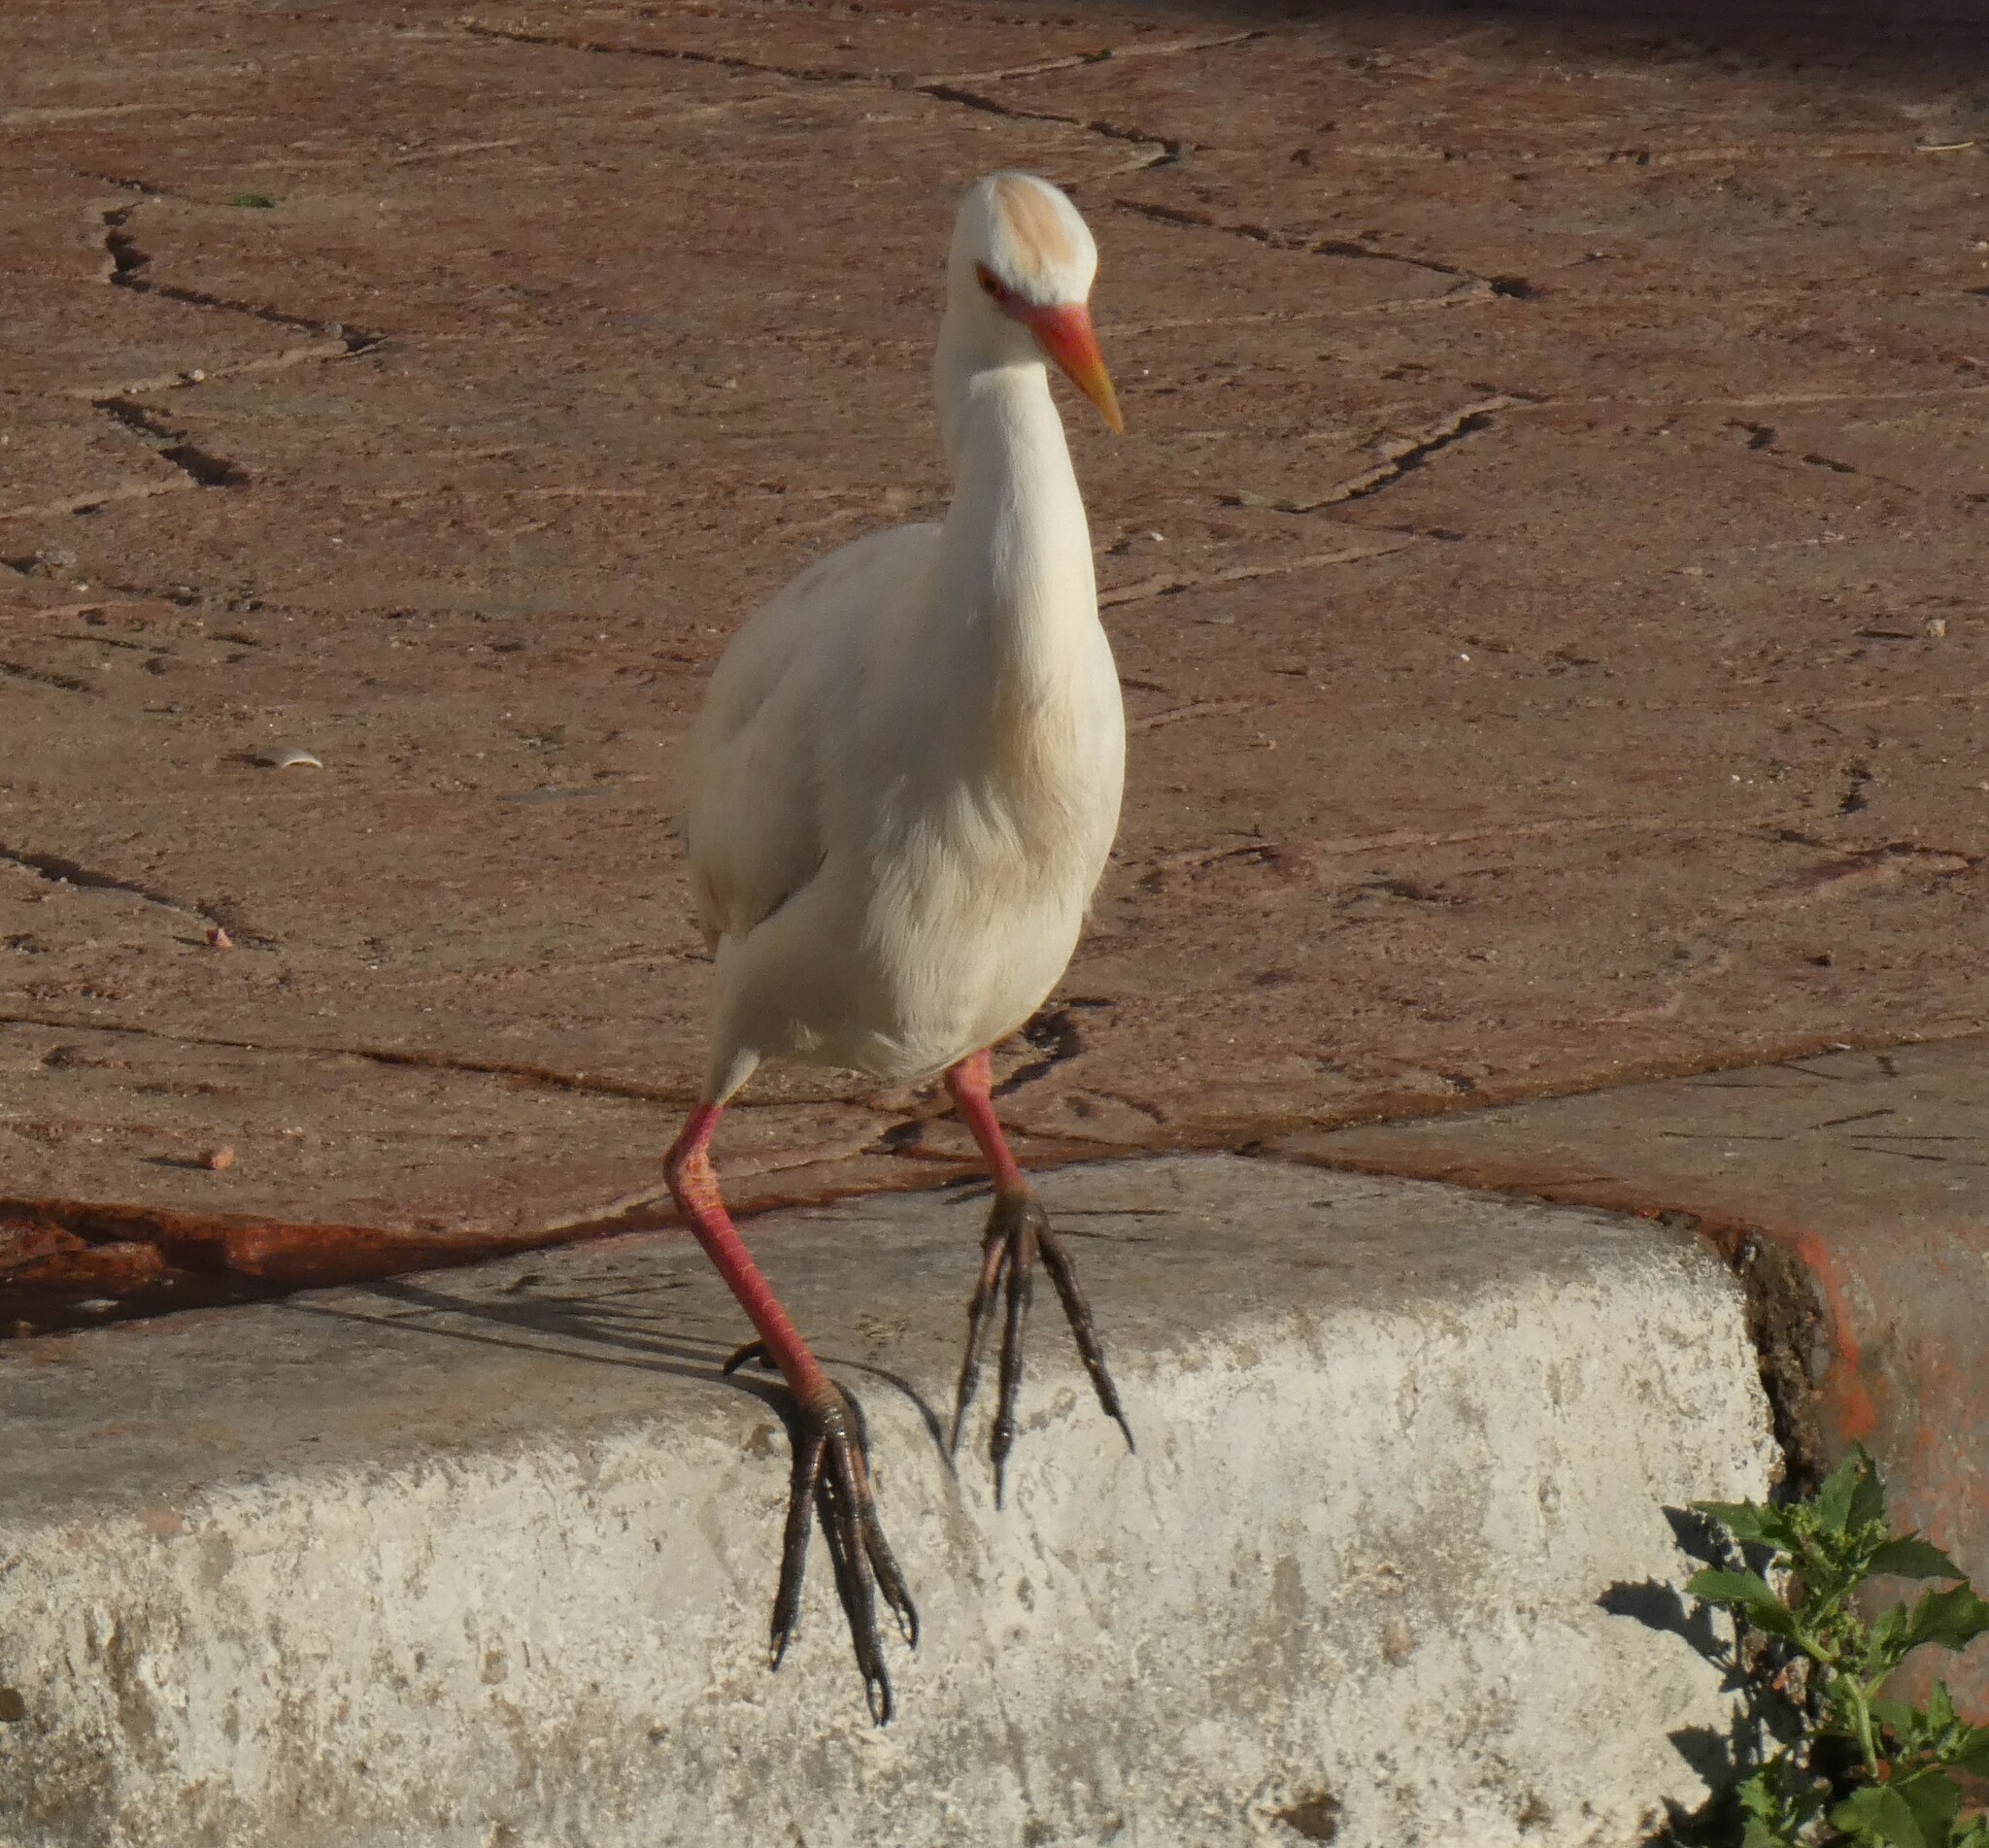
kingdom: Animalia
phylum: Chordata
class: Aves
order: Pelecaniformes
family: Ardeidae
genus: Bubulcus
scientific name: Bubulcus ibis
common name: Cattle egret
